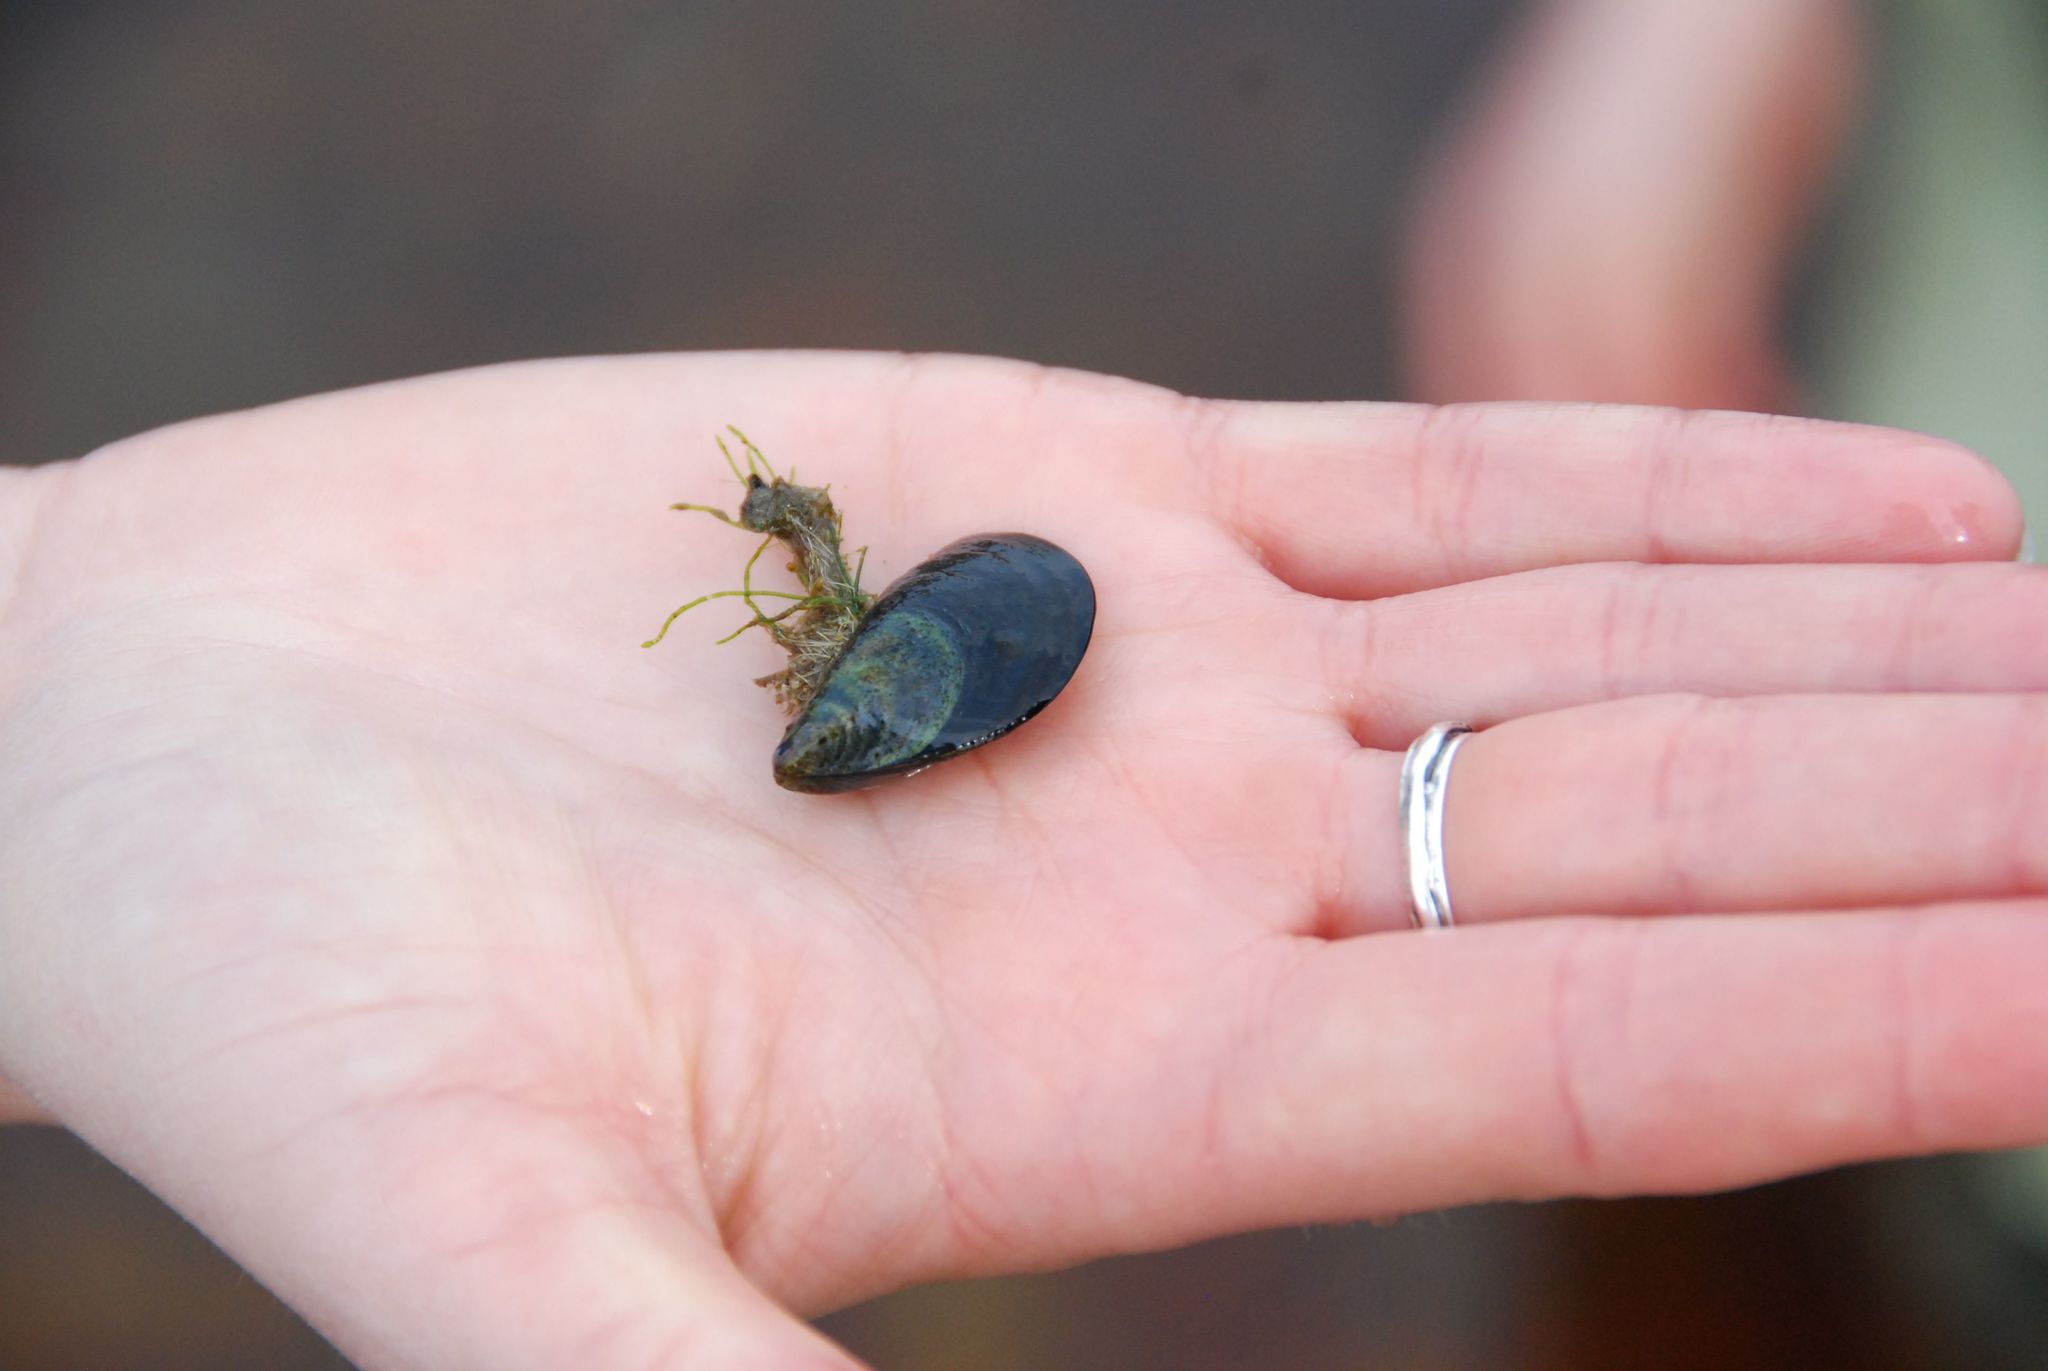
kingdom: Animalia
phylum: Mollusca
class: Bivalvia
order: Mytilida
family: Mytilidae
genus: Mytilus
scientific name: Mytilus edulis
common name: Blue mussel
